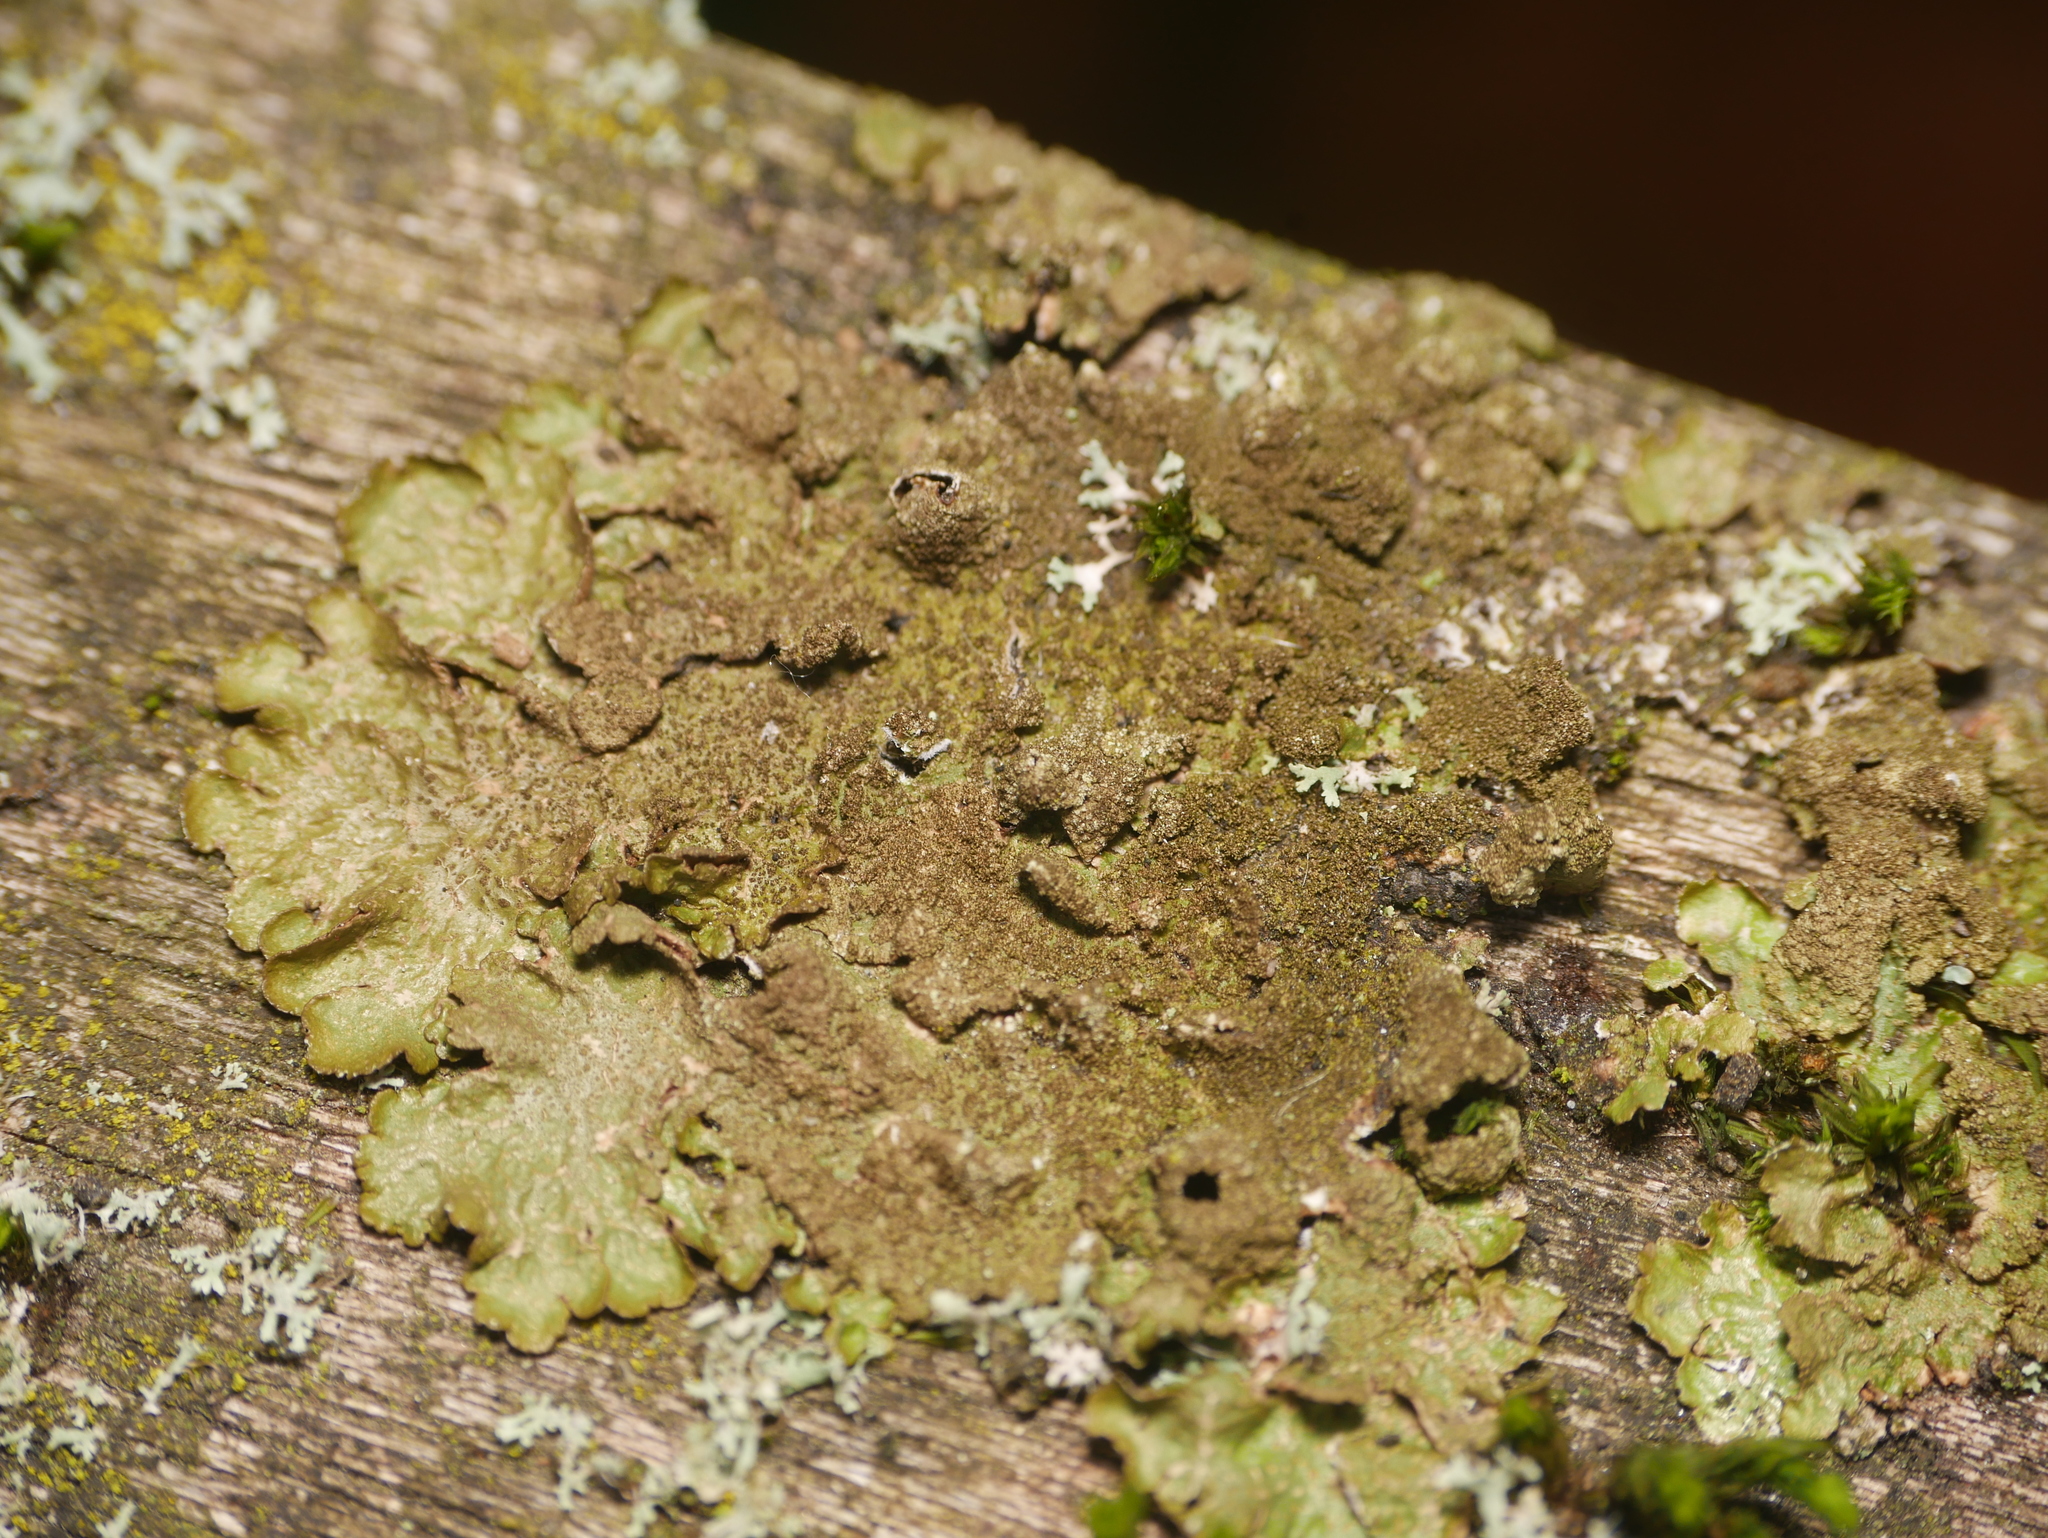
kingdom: Fungi
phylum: Ascomycota
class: Lecanoromycetes
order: Lecanorales
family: Parmeliaceae
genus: Melanelixia
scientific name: Melanelixia subaurifera
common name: Abraded camouflage lichen
